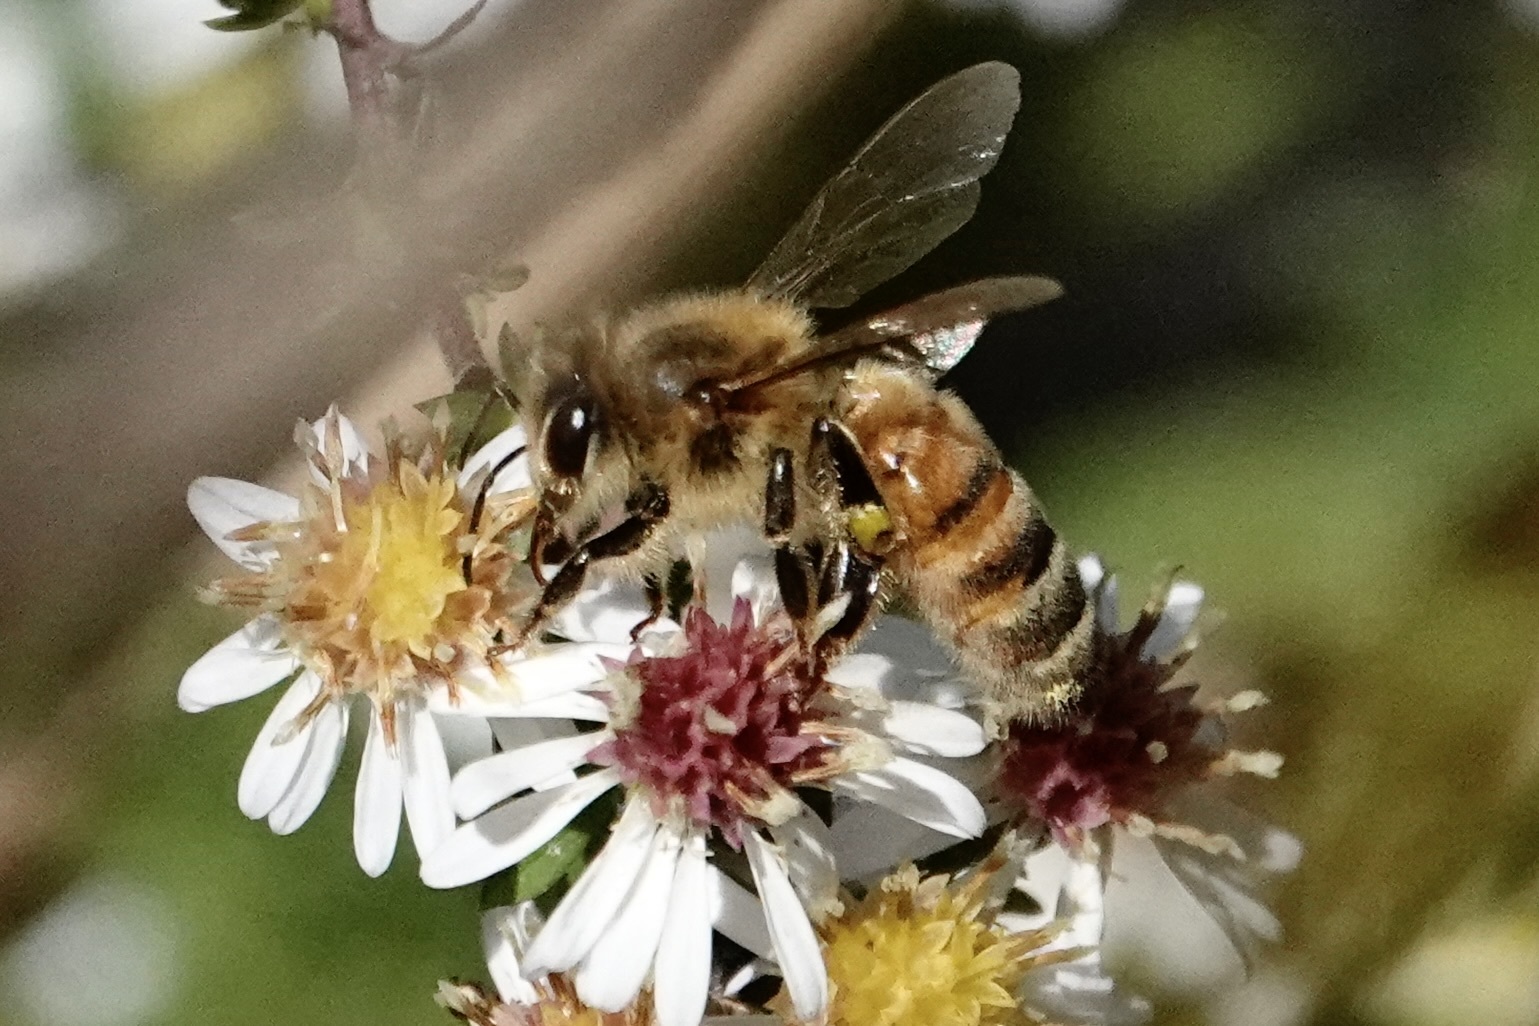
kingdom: Animalia
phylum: Arthropoda
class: Insecta
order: Hymenoptera
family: Apidae
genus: Apis
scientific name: Apis mellifera
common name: Honey bee
